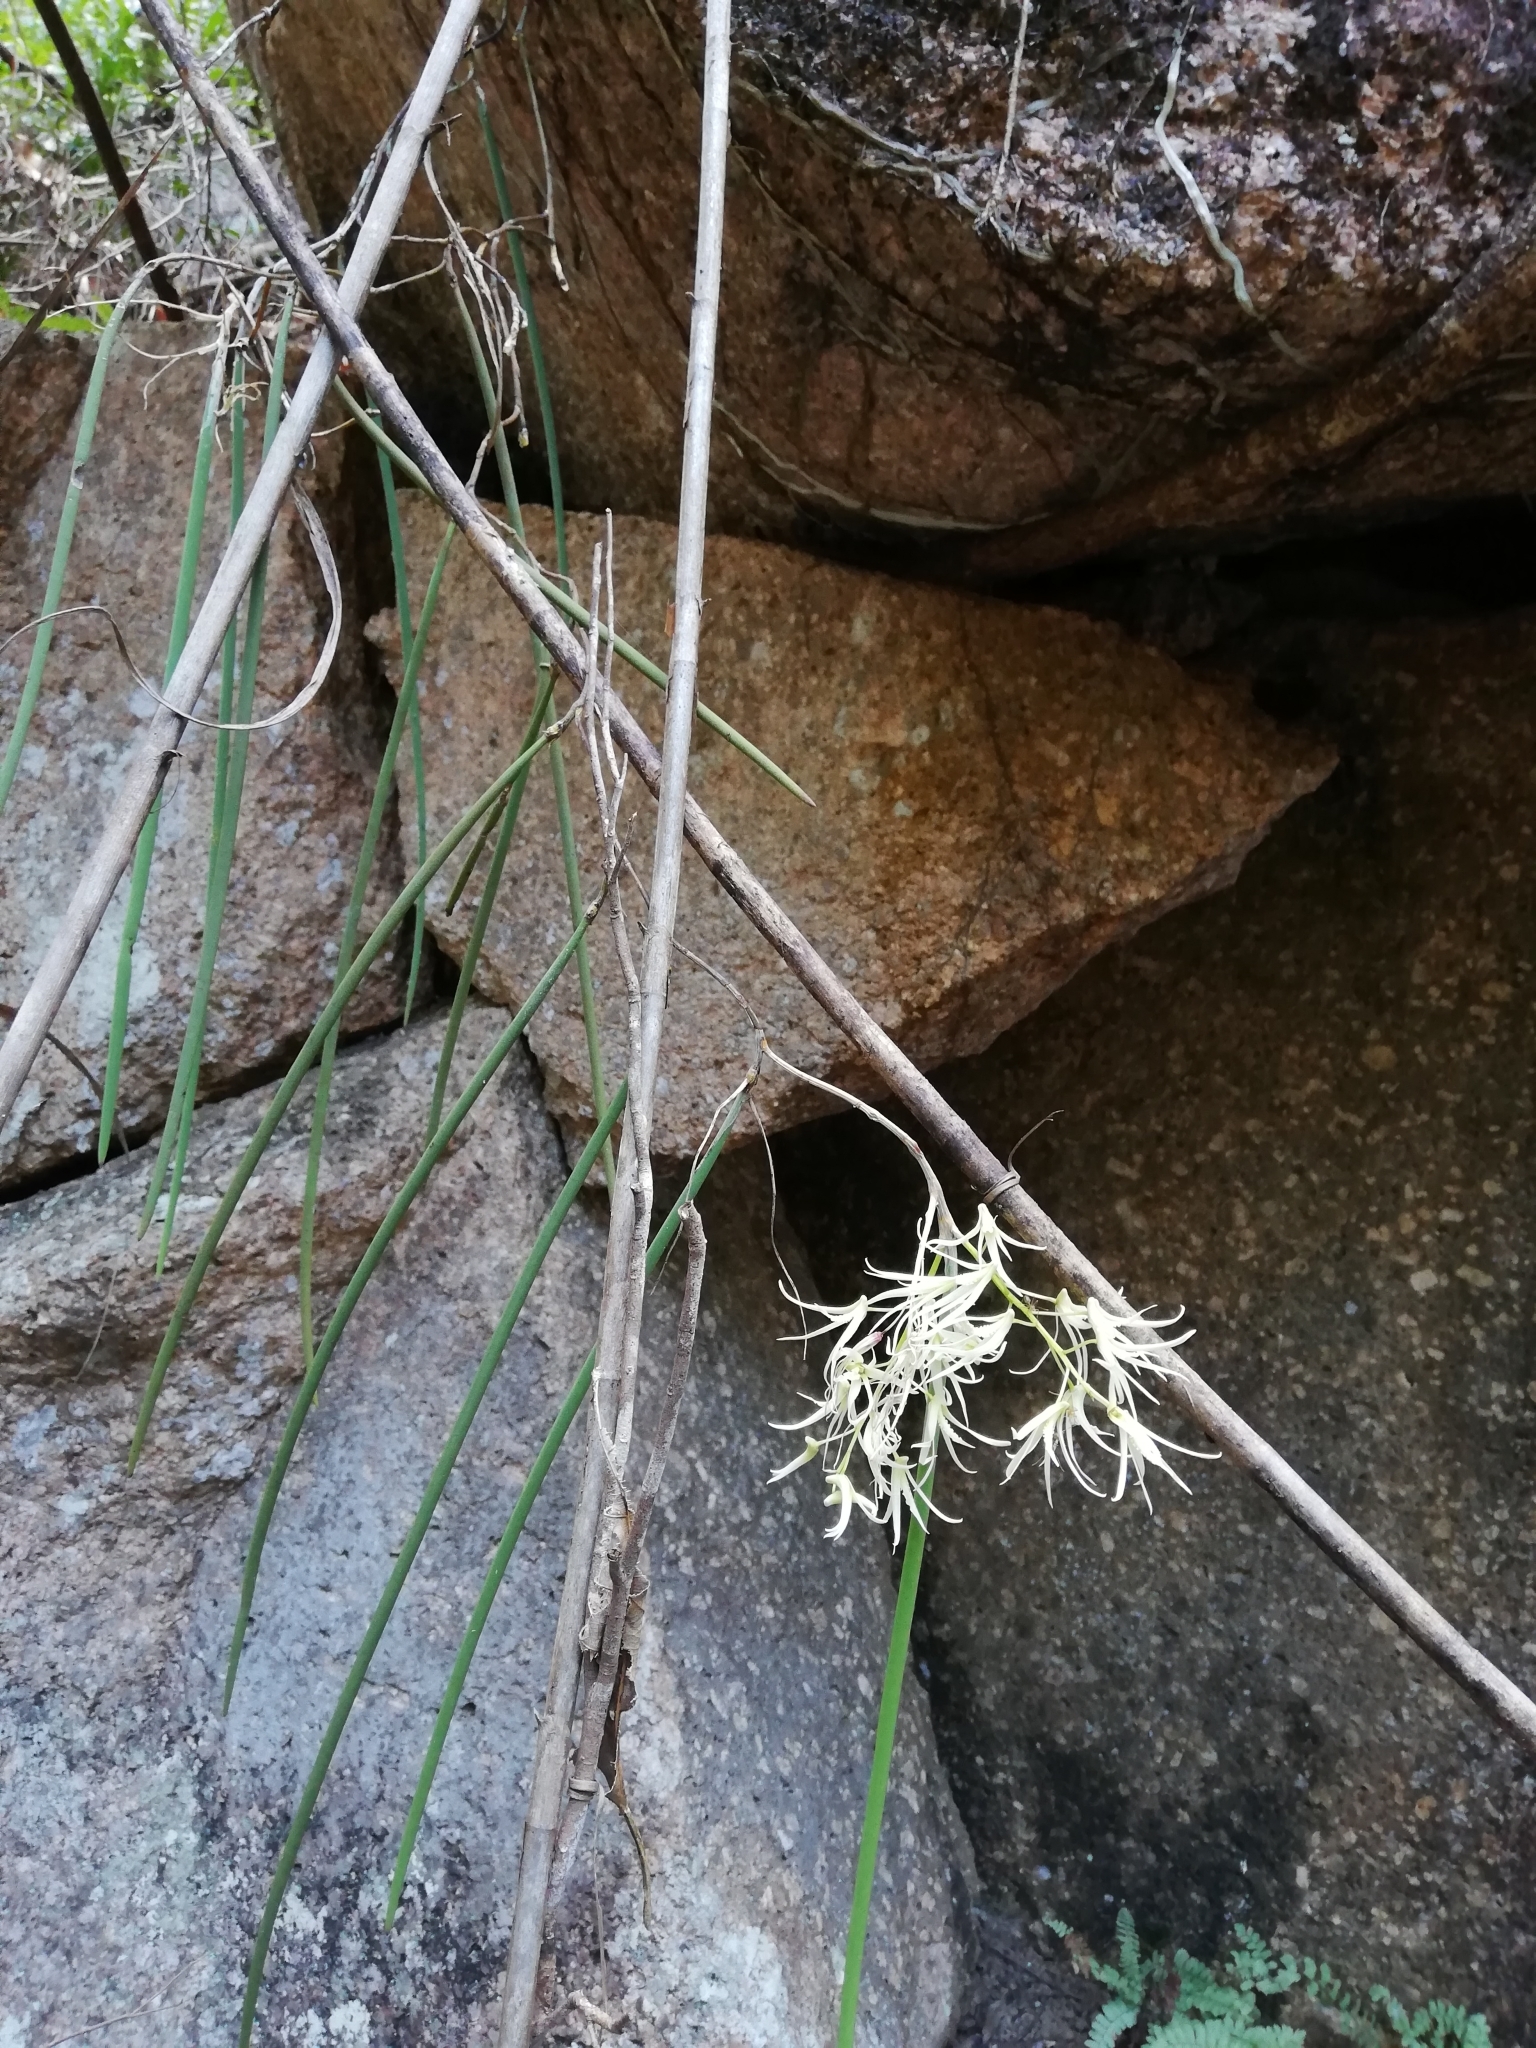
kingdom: Plantae
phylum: Tracheophyta
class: Liliopsida
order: Asparagales
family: Orchidaceae
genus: Dendrobium
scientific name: Dendrobium teretifolium
